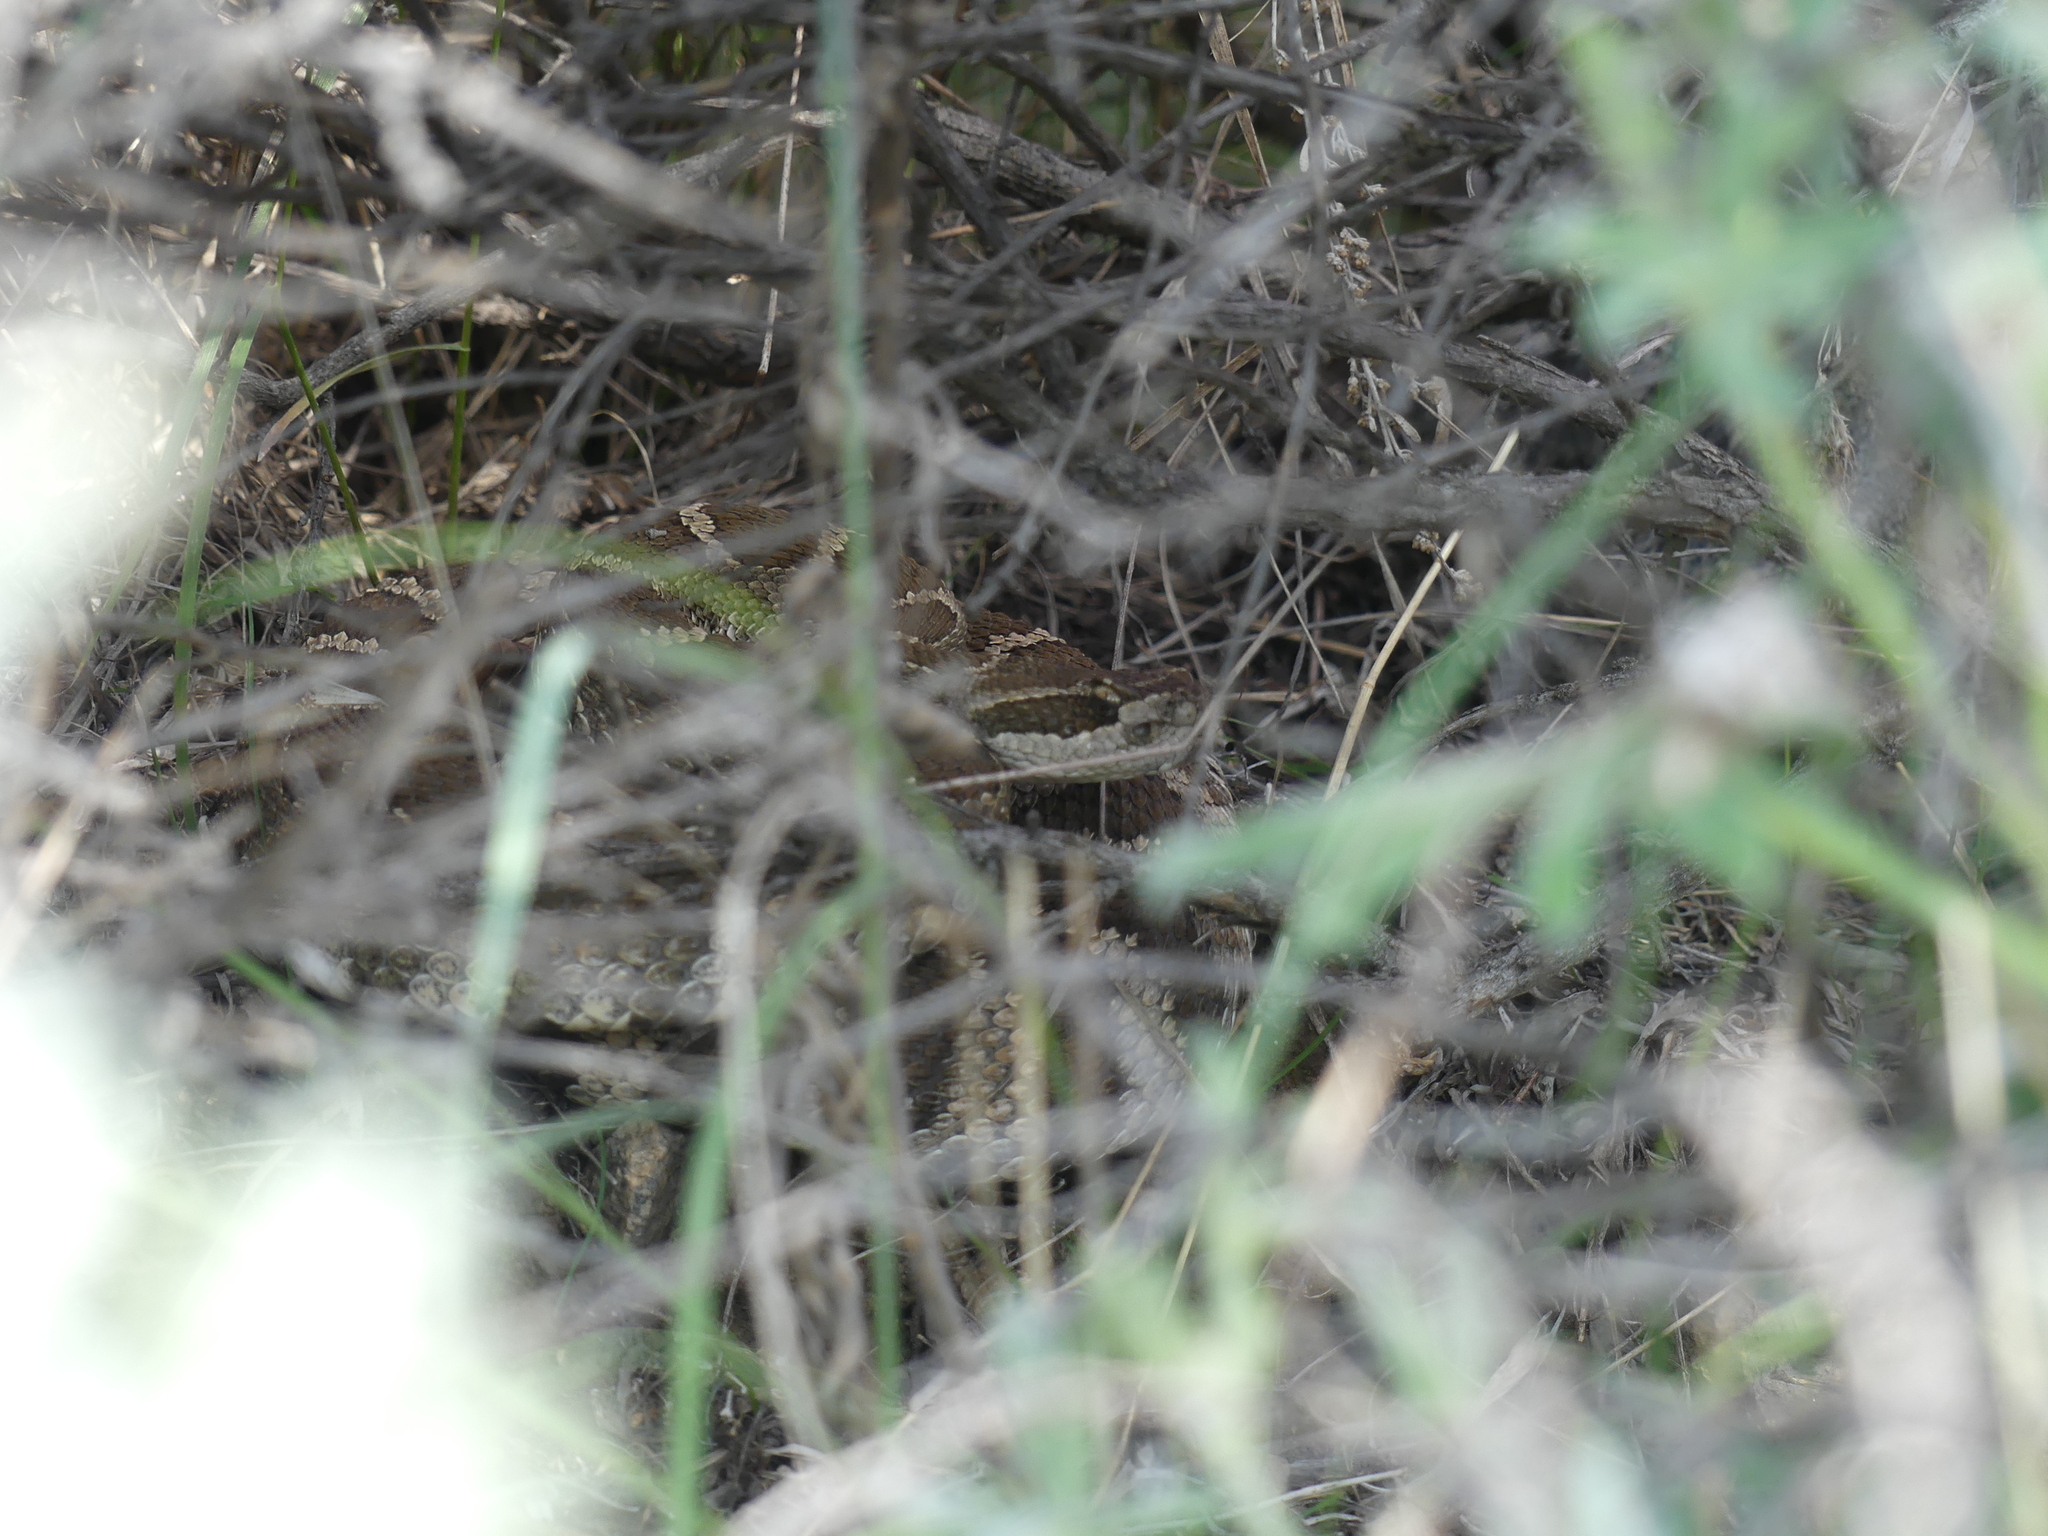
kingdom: Animalia
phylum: Chordata
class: Squamata
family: Viperidae
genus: Crotalus
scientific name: Crotalus oreganus
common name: Abyssus
